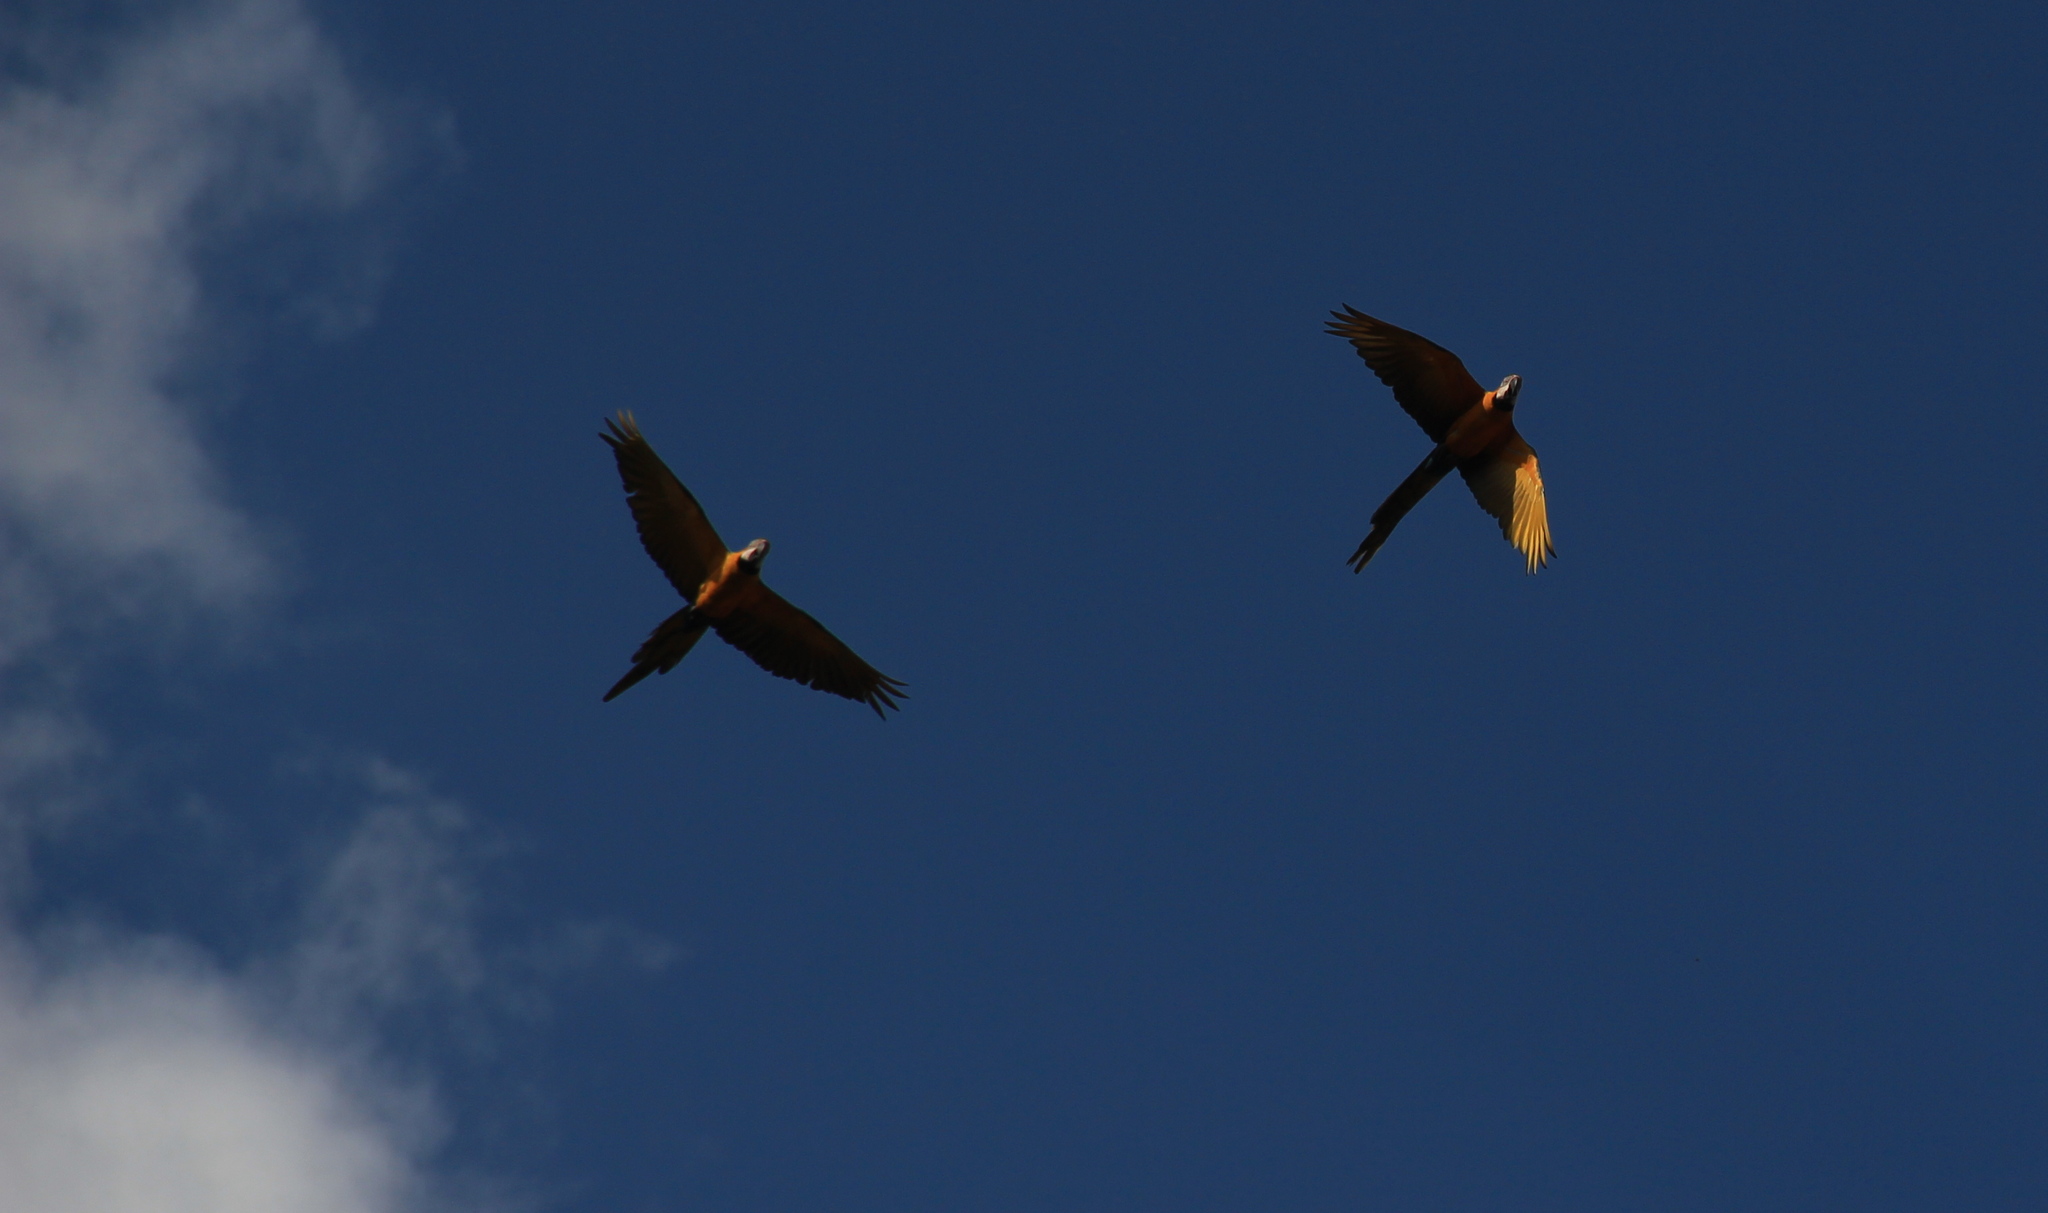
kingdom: Animalia
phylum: Chordata
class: Aves
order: Psittaciformes
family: Psittacidae
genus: Ara
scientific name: Ara ararauna
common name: Blue-and-yellow macaw
